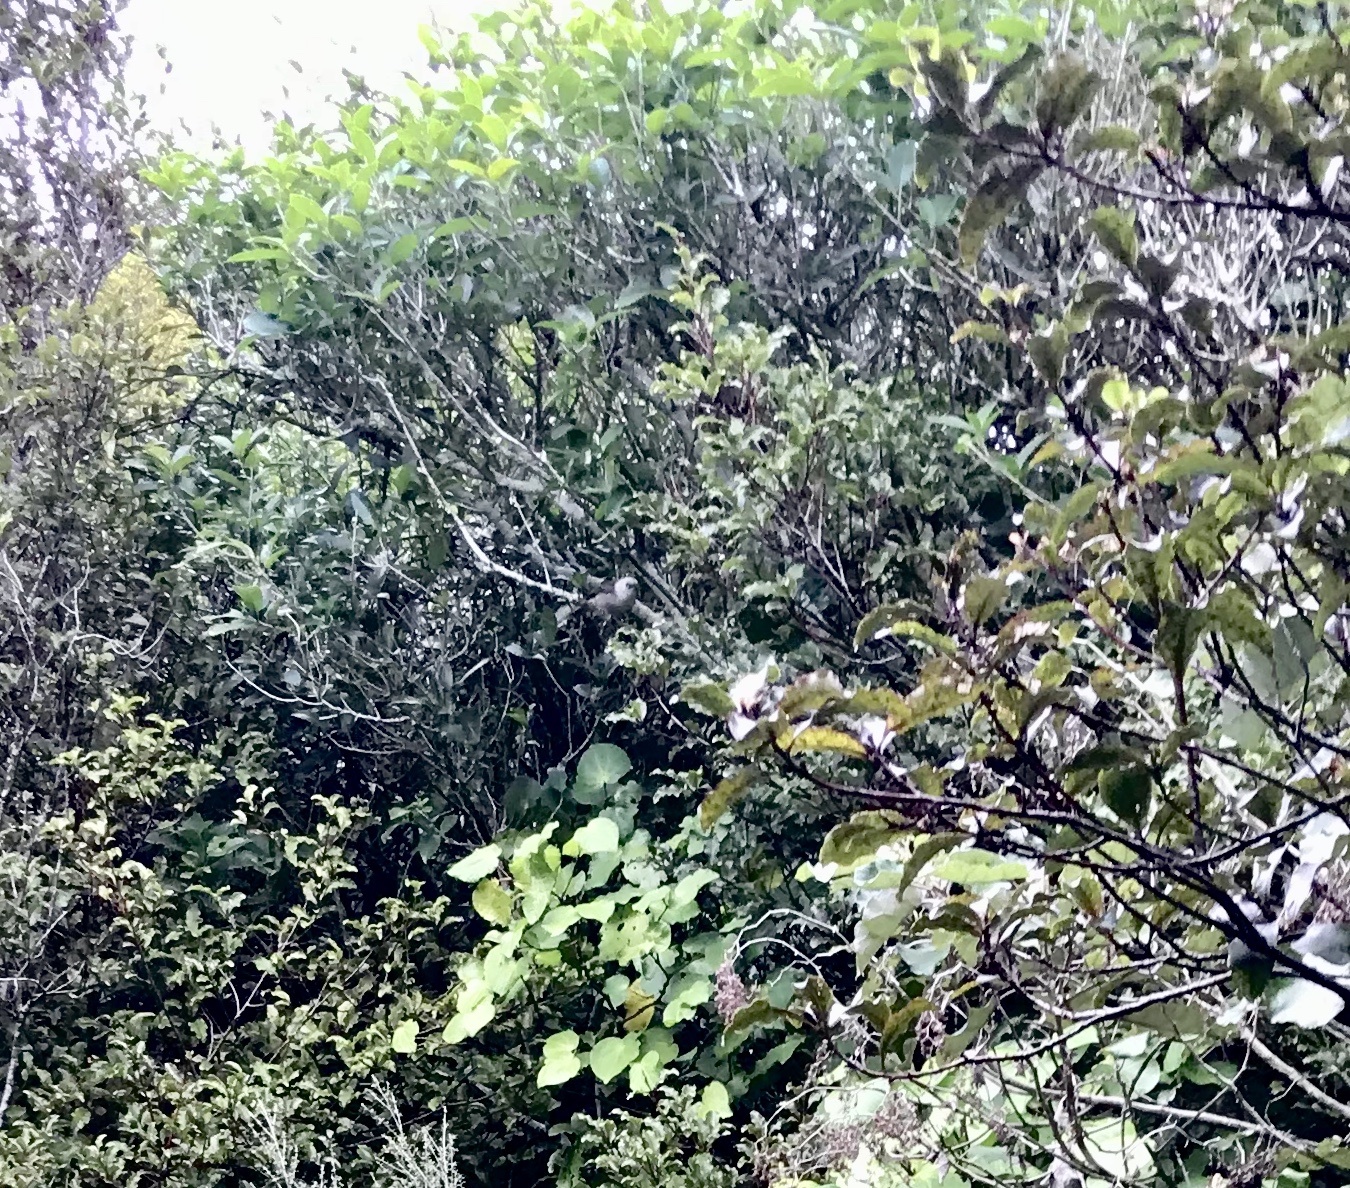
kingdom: Animalia
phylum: Chordata
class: Aves
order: Passeriformes
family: Acanthizidae
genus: Mohoua
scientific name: Mohoua albicilla
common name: Whitehead
